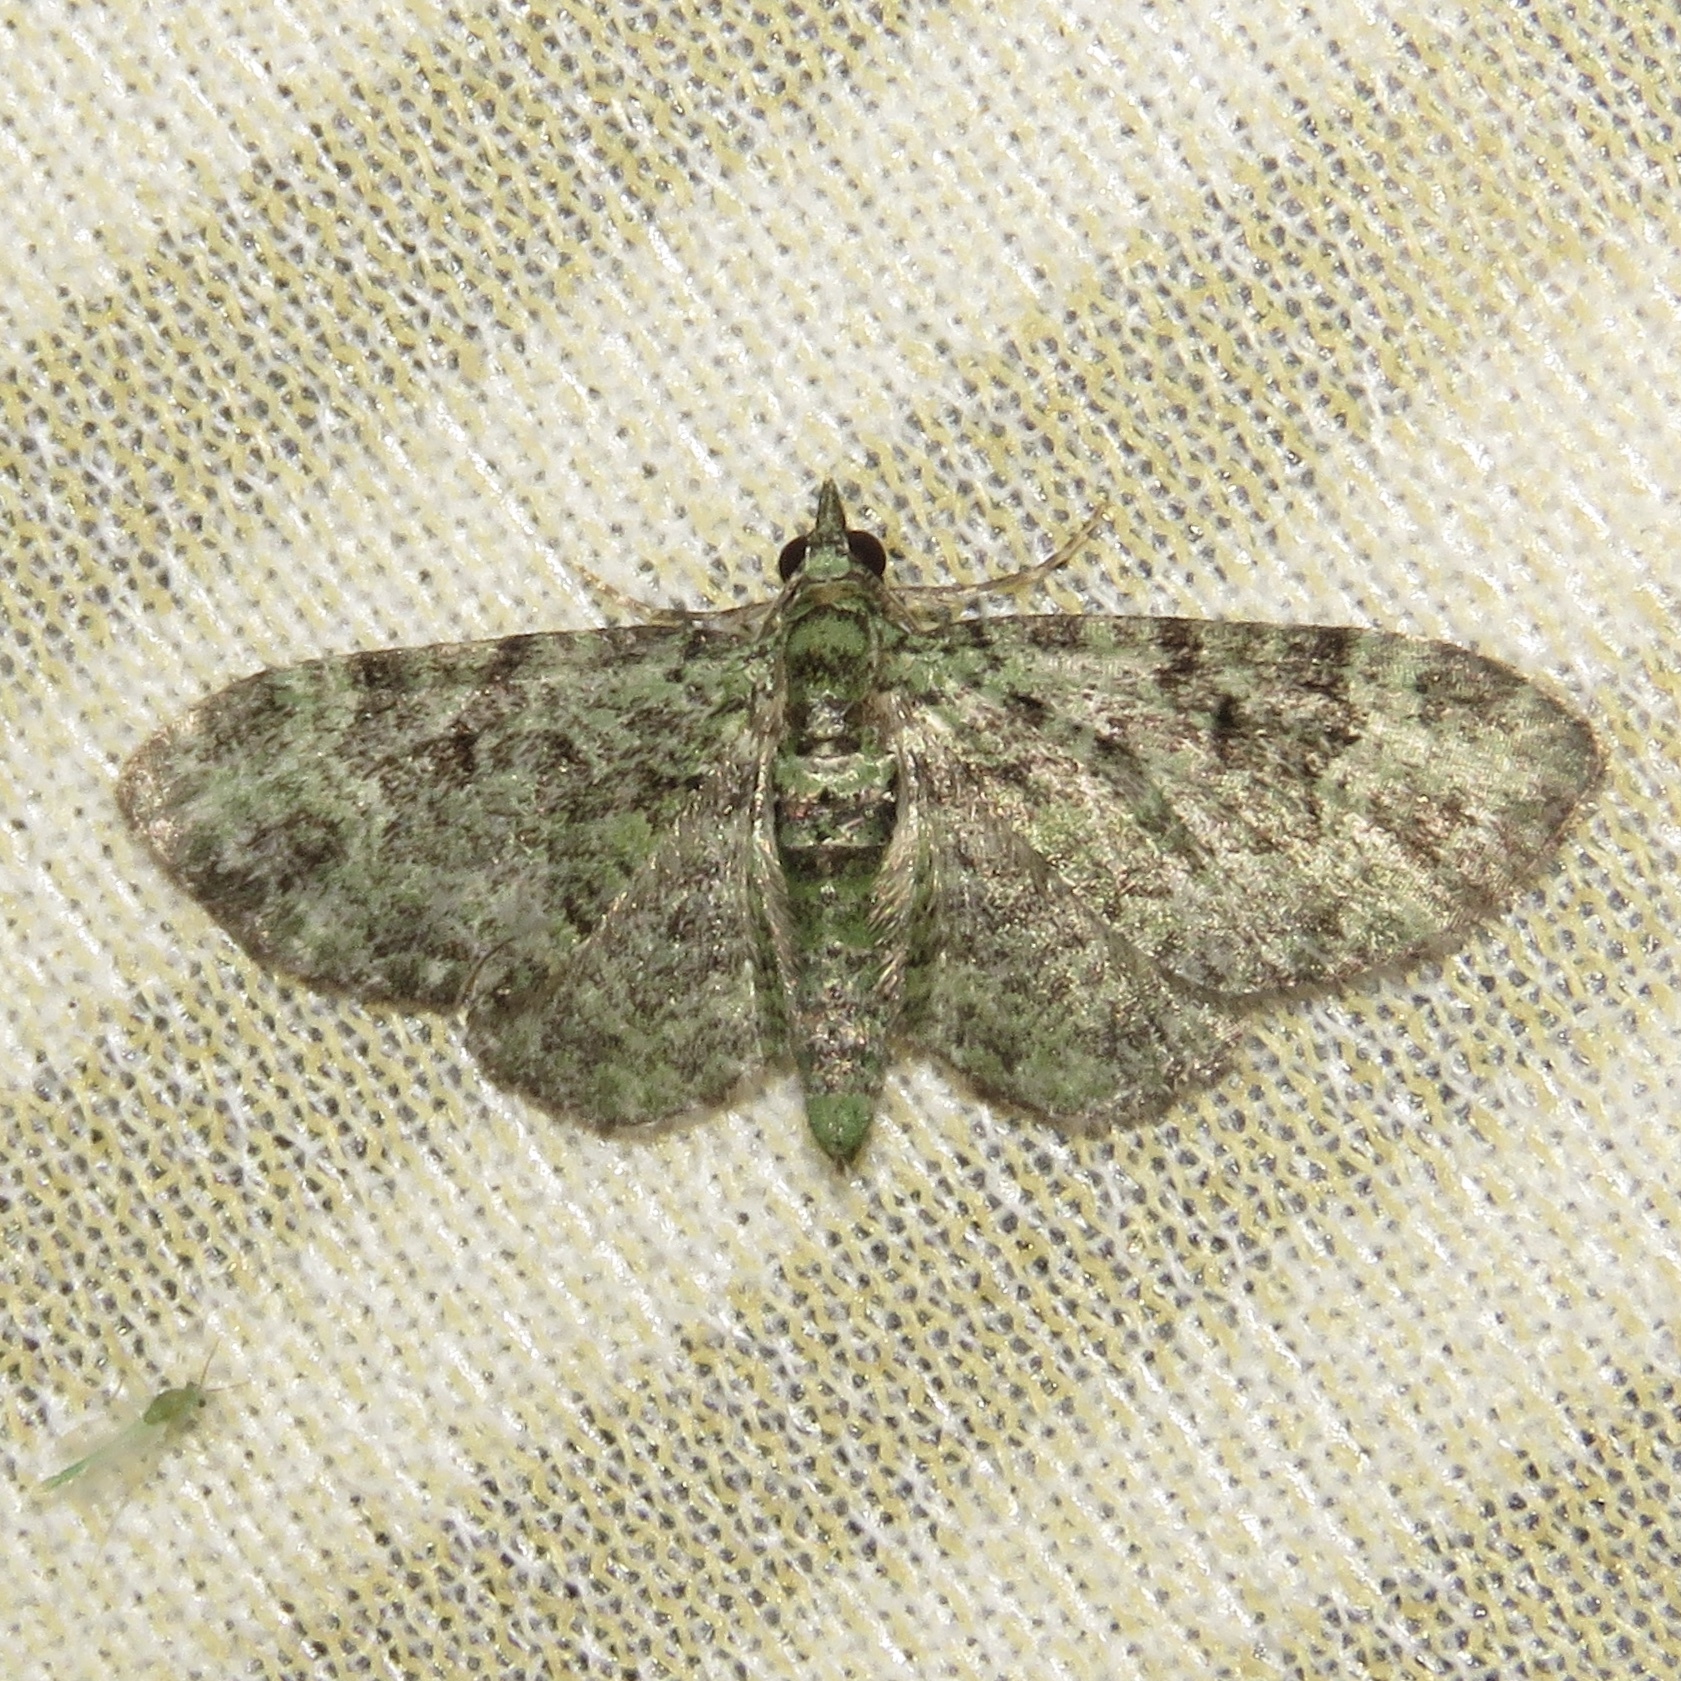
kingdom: Animalia
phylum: Arthropoda
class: Insecta
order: Lepidoptera
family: Geometridae
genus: Pasiphila
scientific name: Pasiphila rectangulata
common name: Green pug
